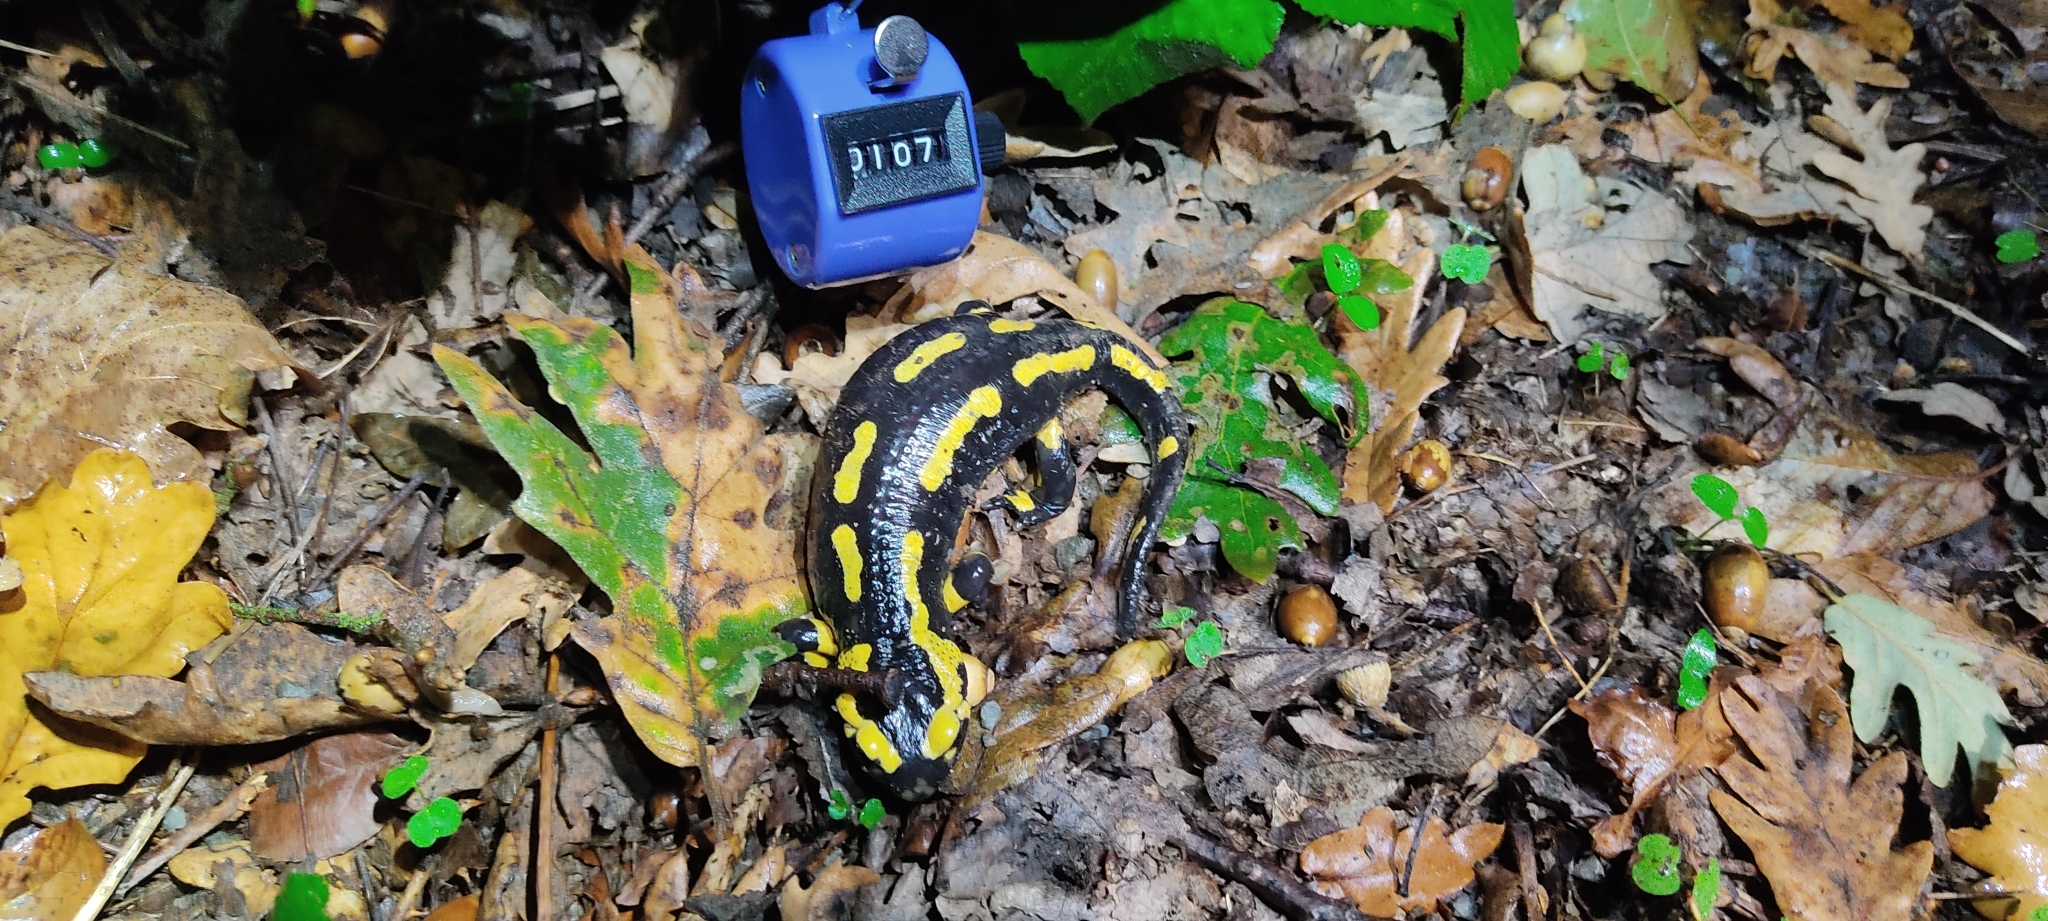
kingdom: Animalia
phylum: Chordata
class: Amphibia
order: Caudata
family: Salamandridae
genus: Salamandra
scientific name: Salamandra salamandra
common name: Fire salamander
